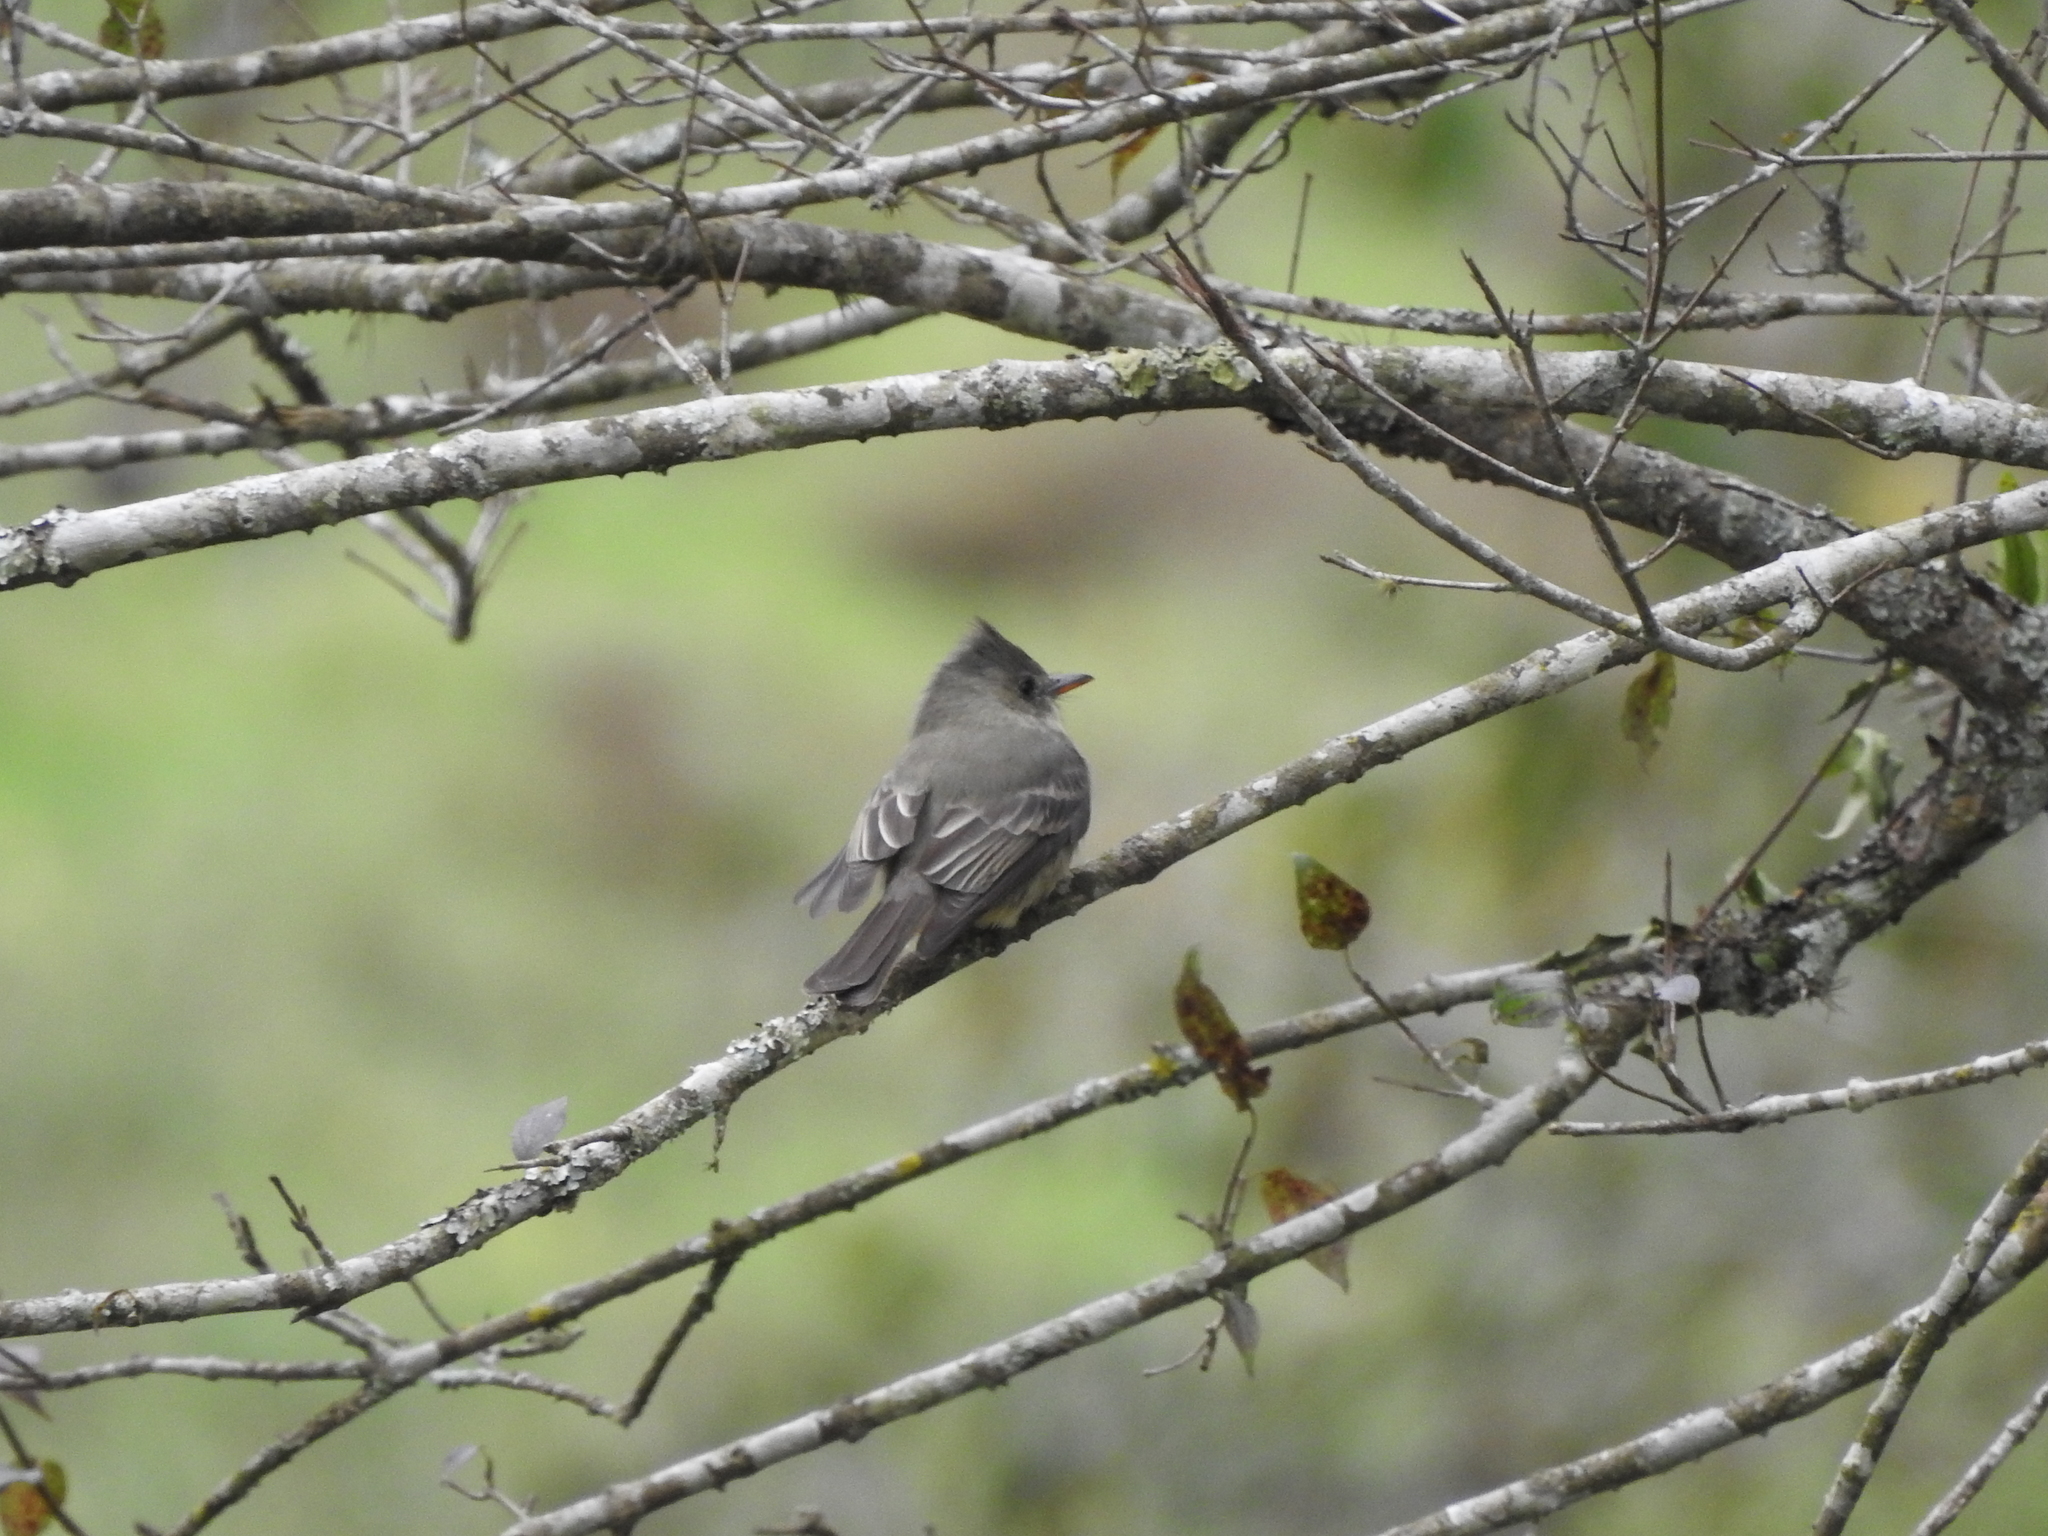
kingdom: Animalia
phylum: Chordata
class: Aves
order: Passeriformes
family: Tyrannidae
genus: Contopus
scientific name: Contopus pertinax
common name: Greater pewee
